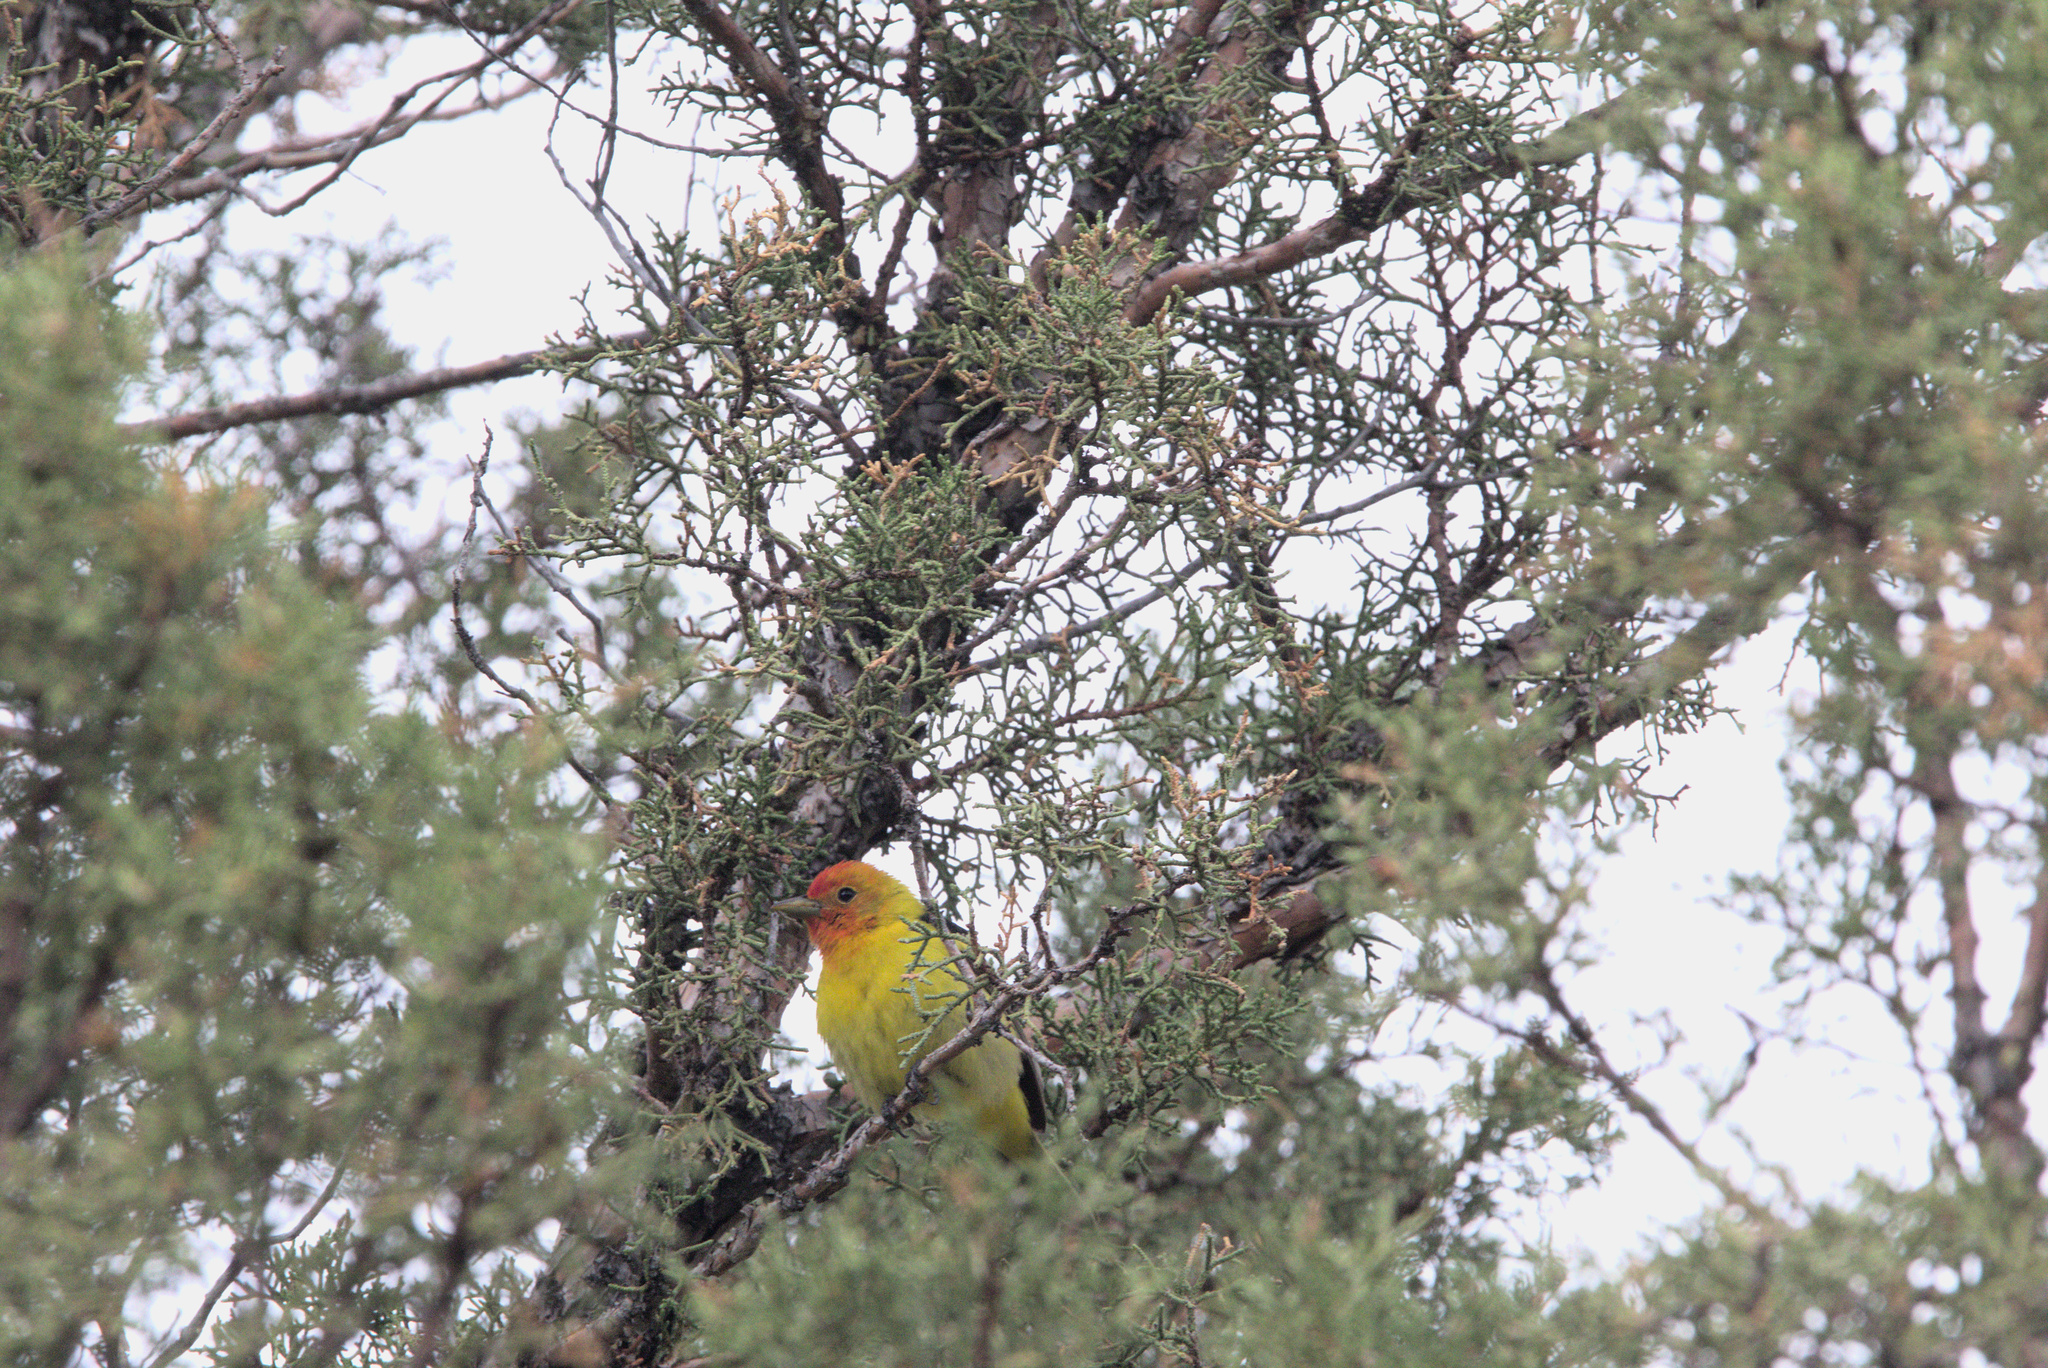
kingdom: Animalia
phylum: Chordata
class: Aves
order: Passeriformes
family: Cardinalidae
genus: Piranga
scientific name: Piranga ludoviciana
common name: Western tanager
